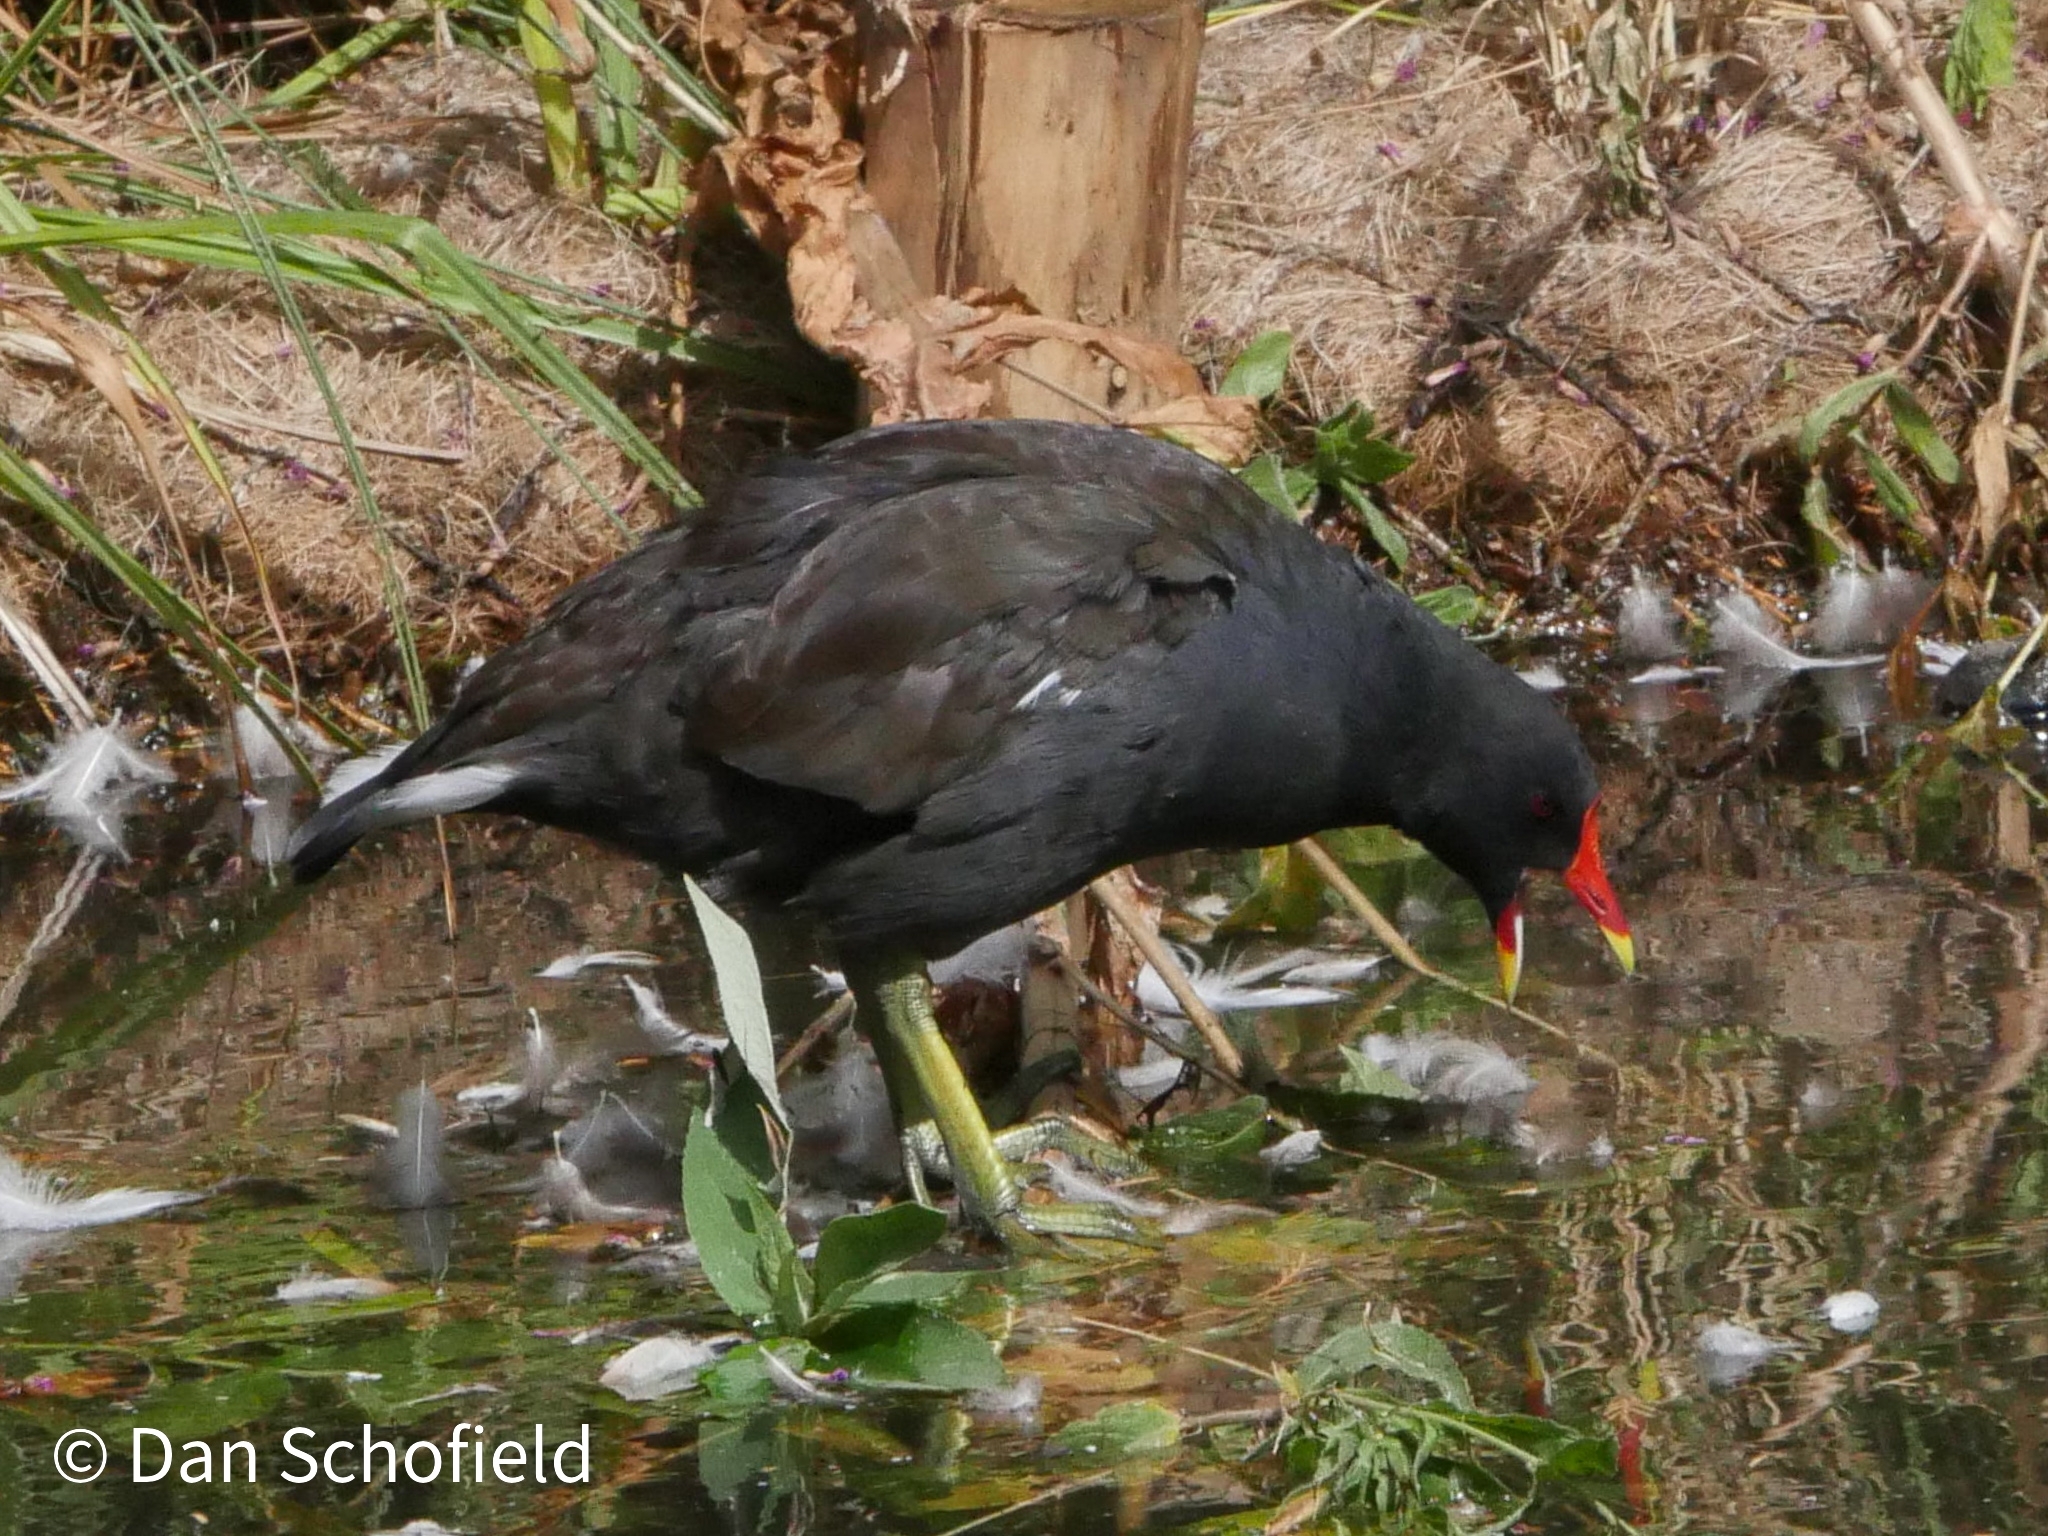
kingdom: Animalia
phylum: Chordata
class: Aves
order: Gruiformes
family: Rallidae
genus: Gallinula
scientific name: Gallinula chloropus
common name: Common moorhen
